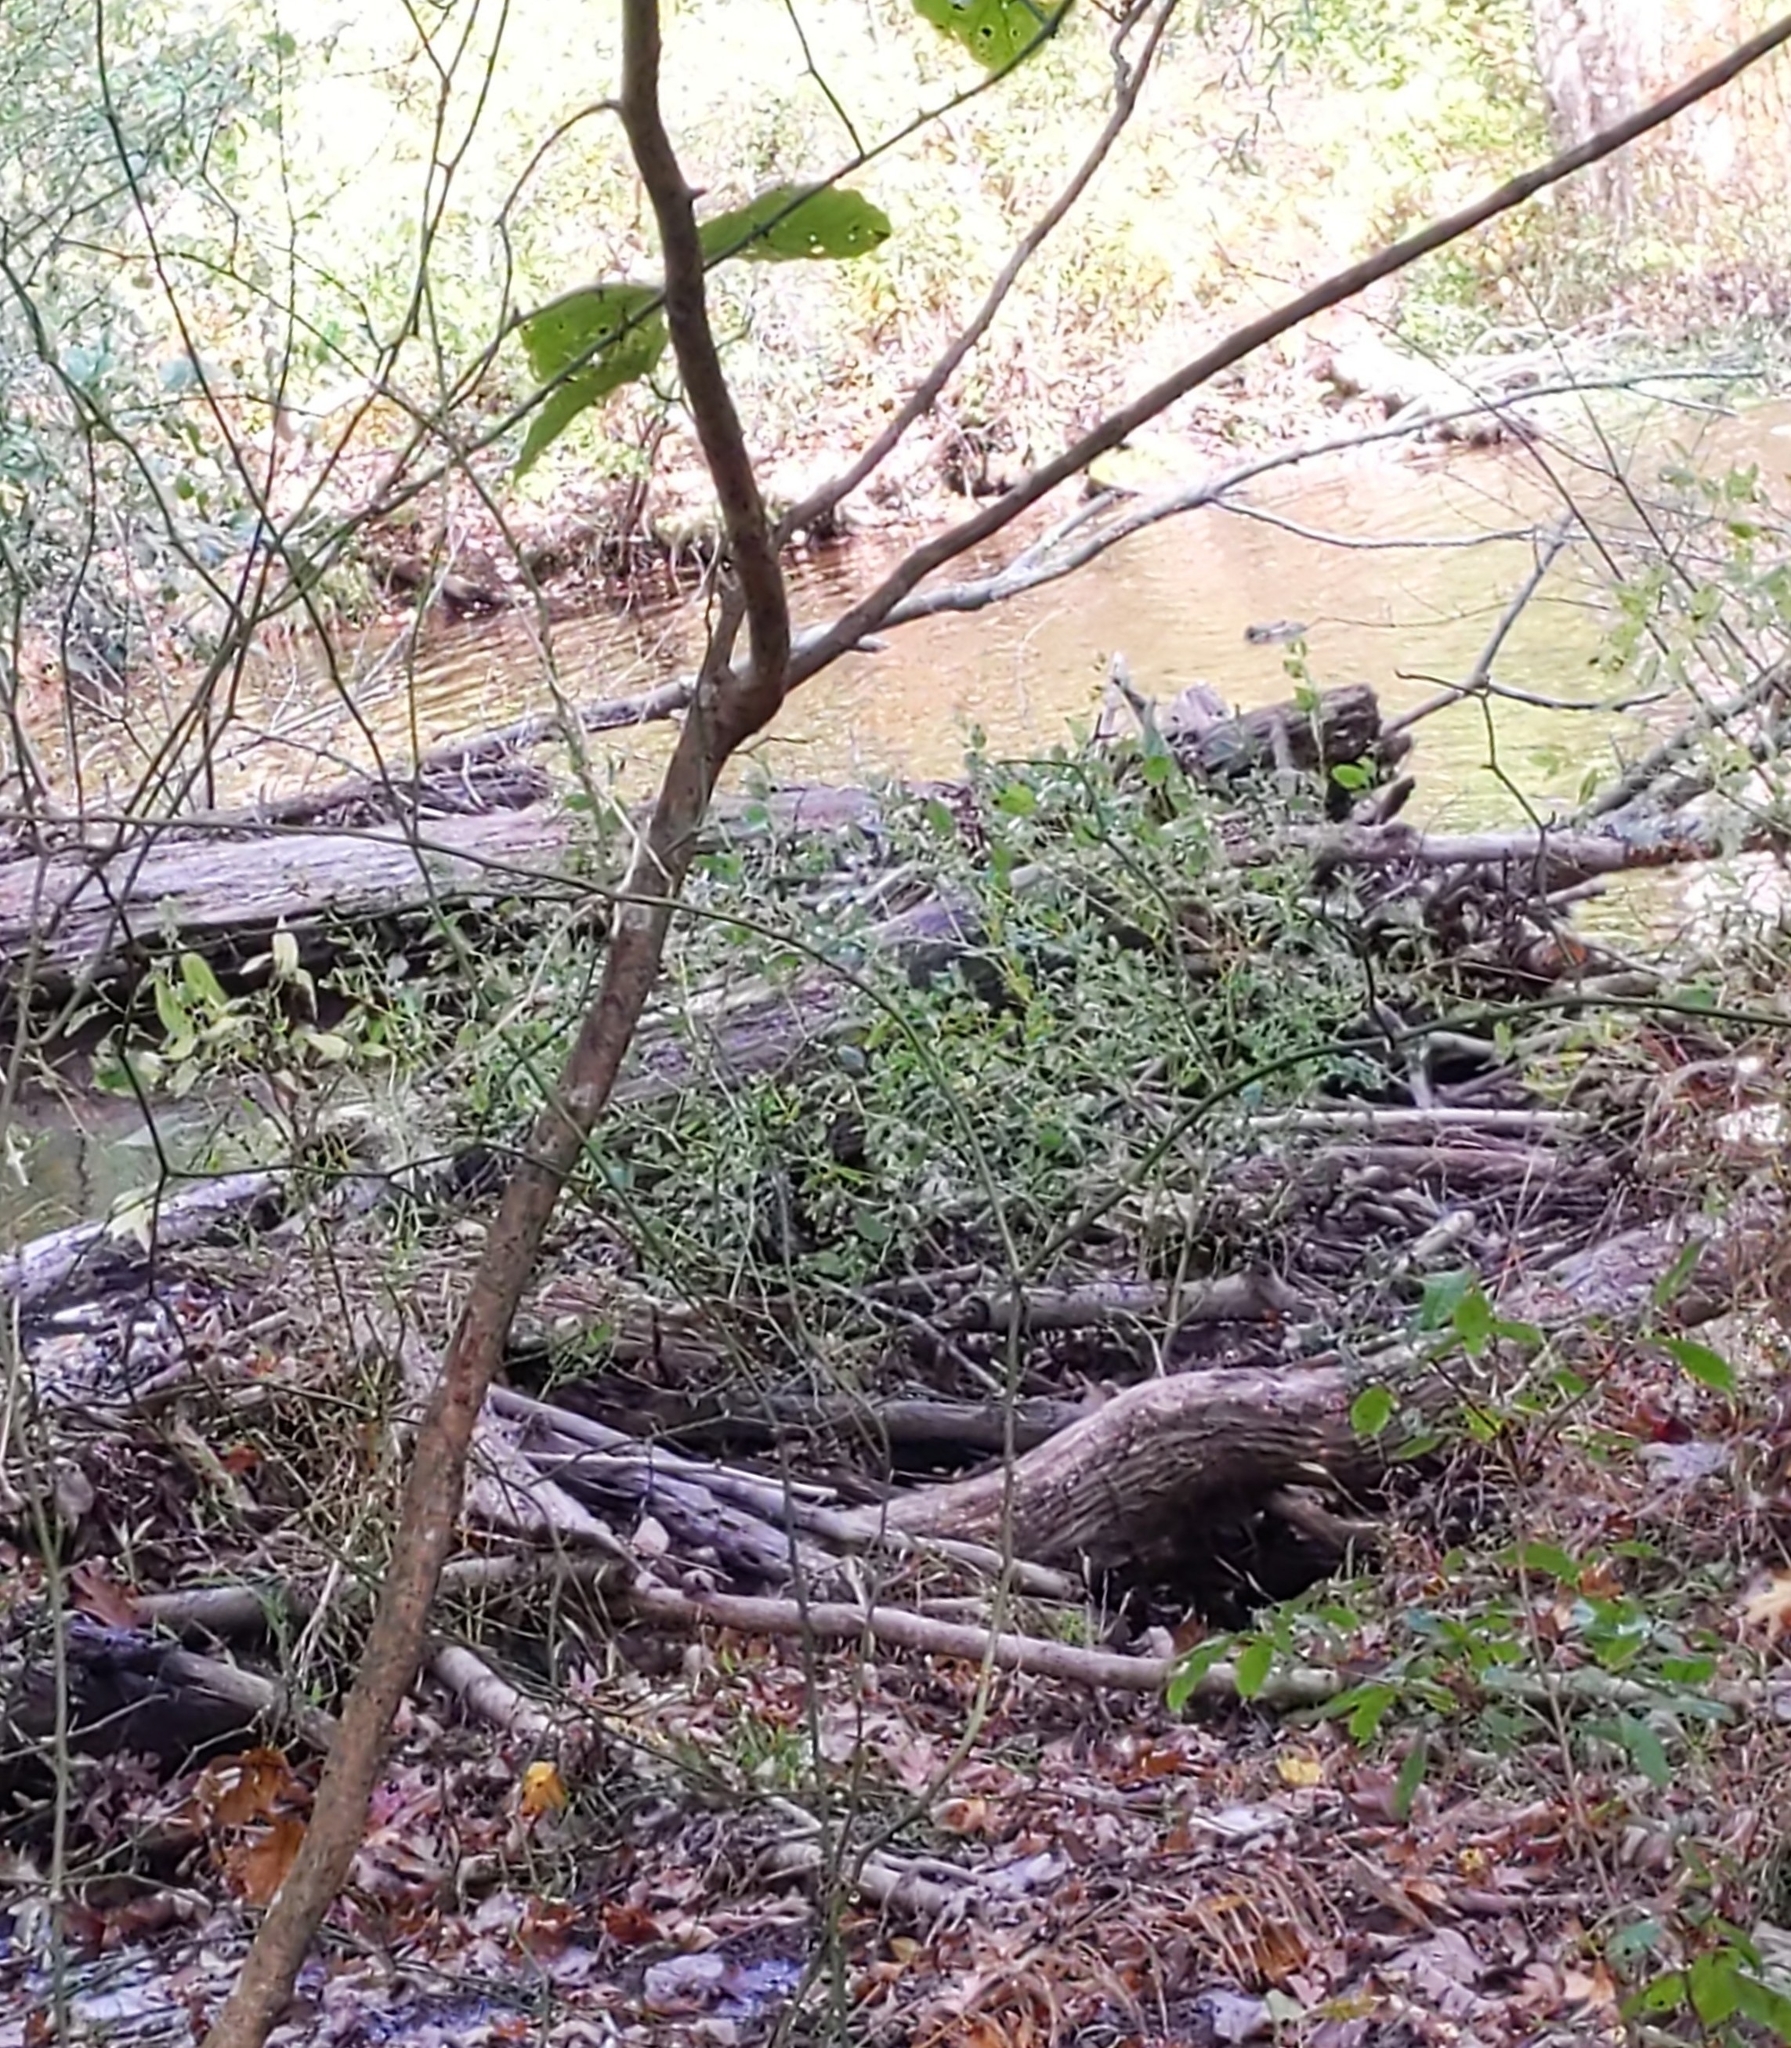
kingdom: Animalia
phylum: Chordata
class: Mammalia
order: Rodentia
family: Castoridae
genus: Castor
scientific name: Castor canadensis
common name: American beaver
